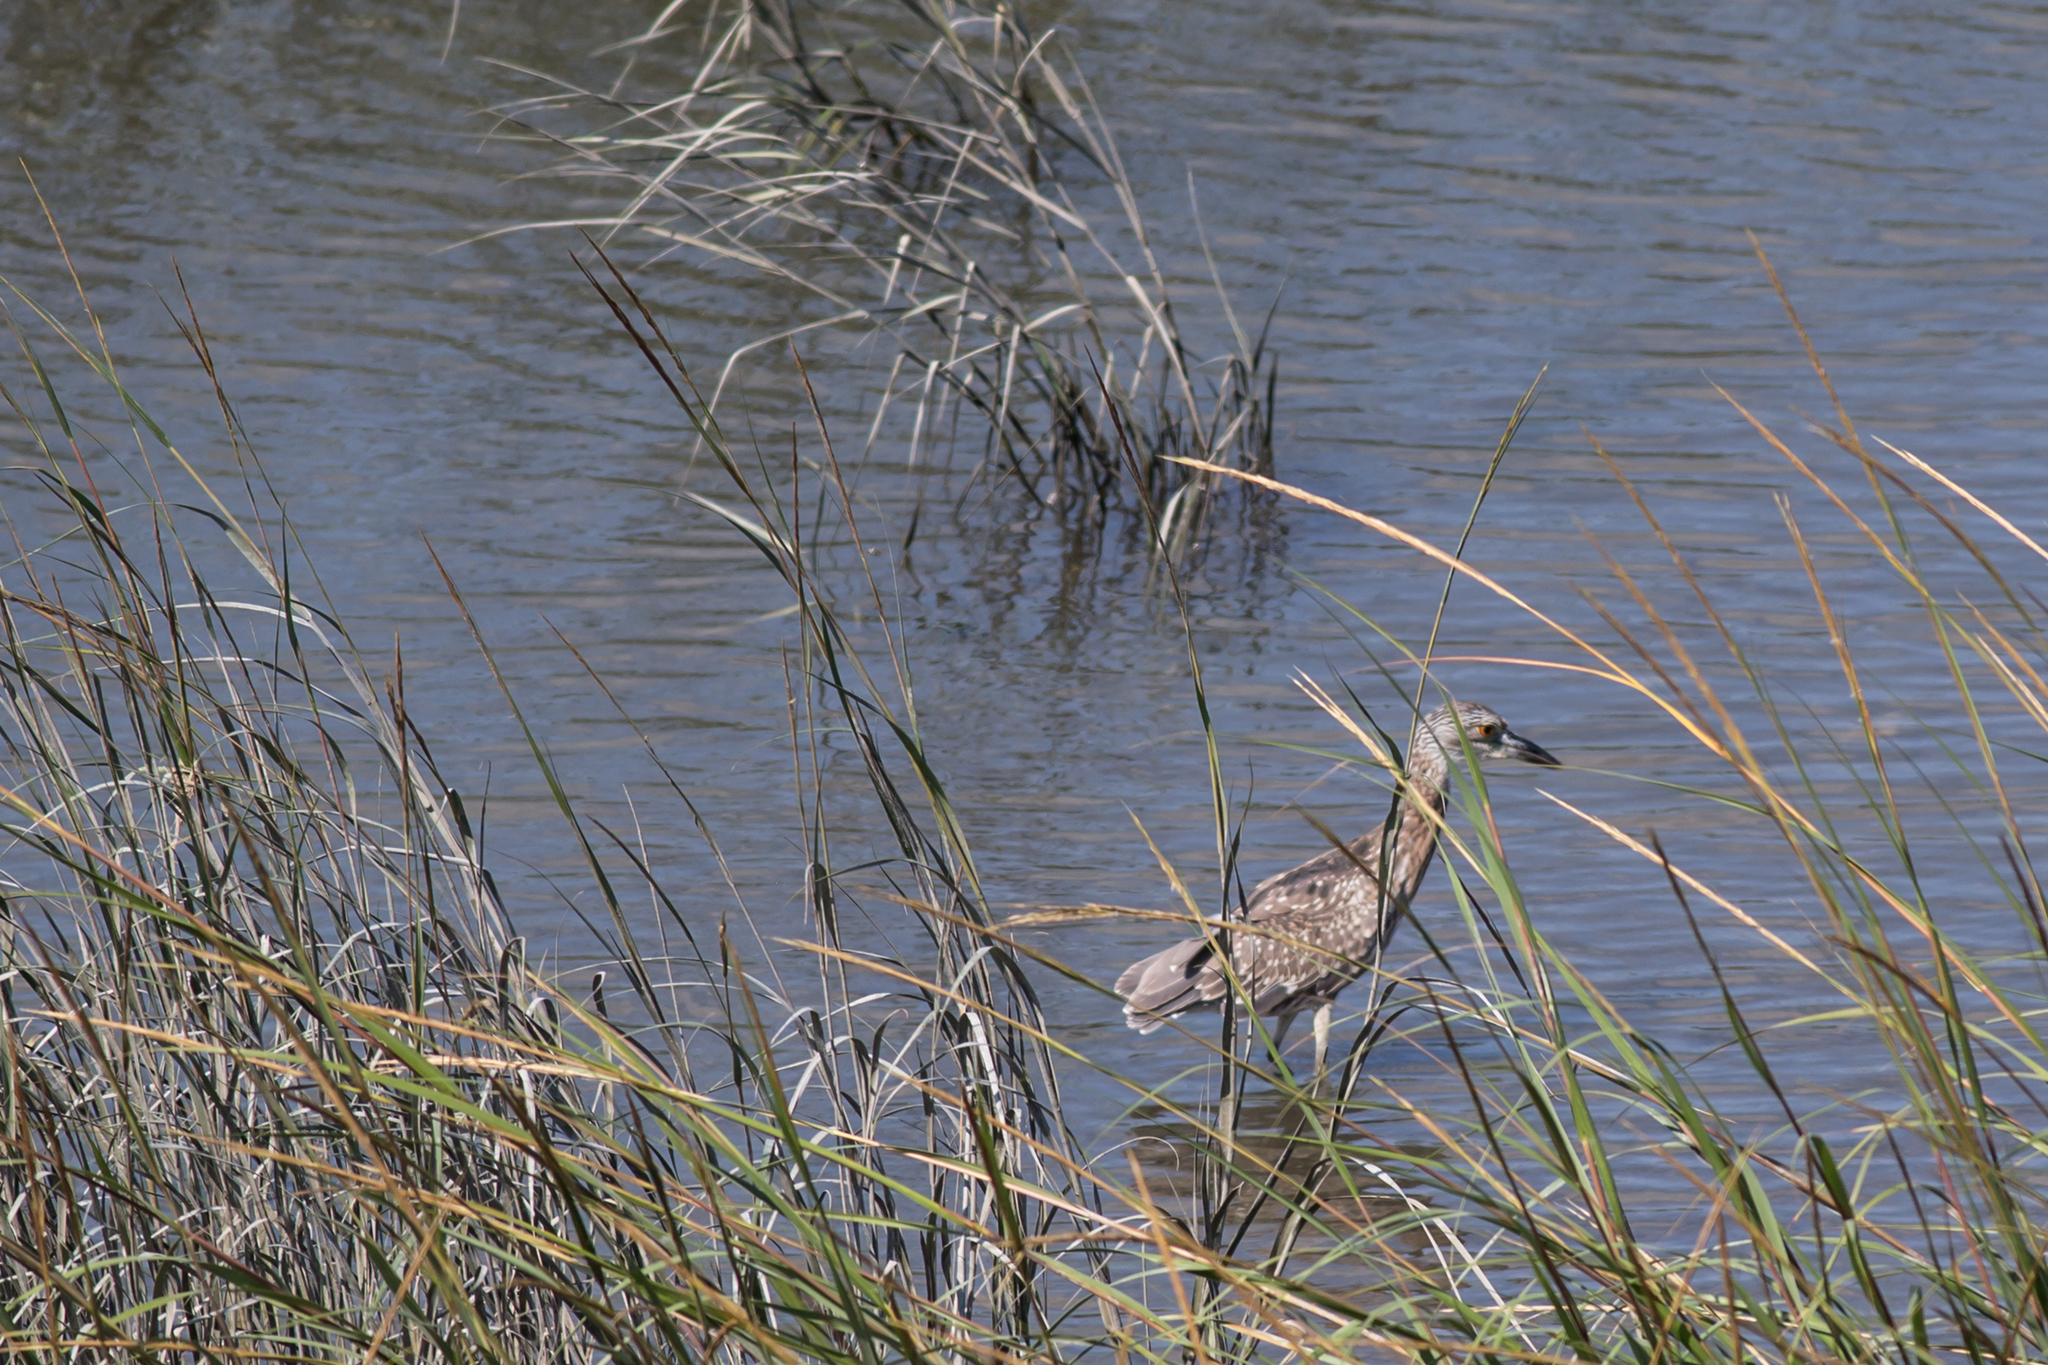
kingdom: Animalia
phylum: Chordata
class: Aves
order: Pelecaniformes
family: Ardeidae
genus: Nyctanassa
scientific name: Nyctanassa violacea
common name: Yellow-crowned night heron
